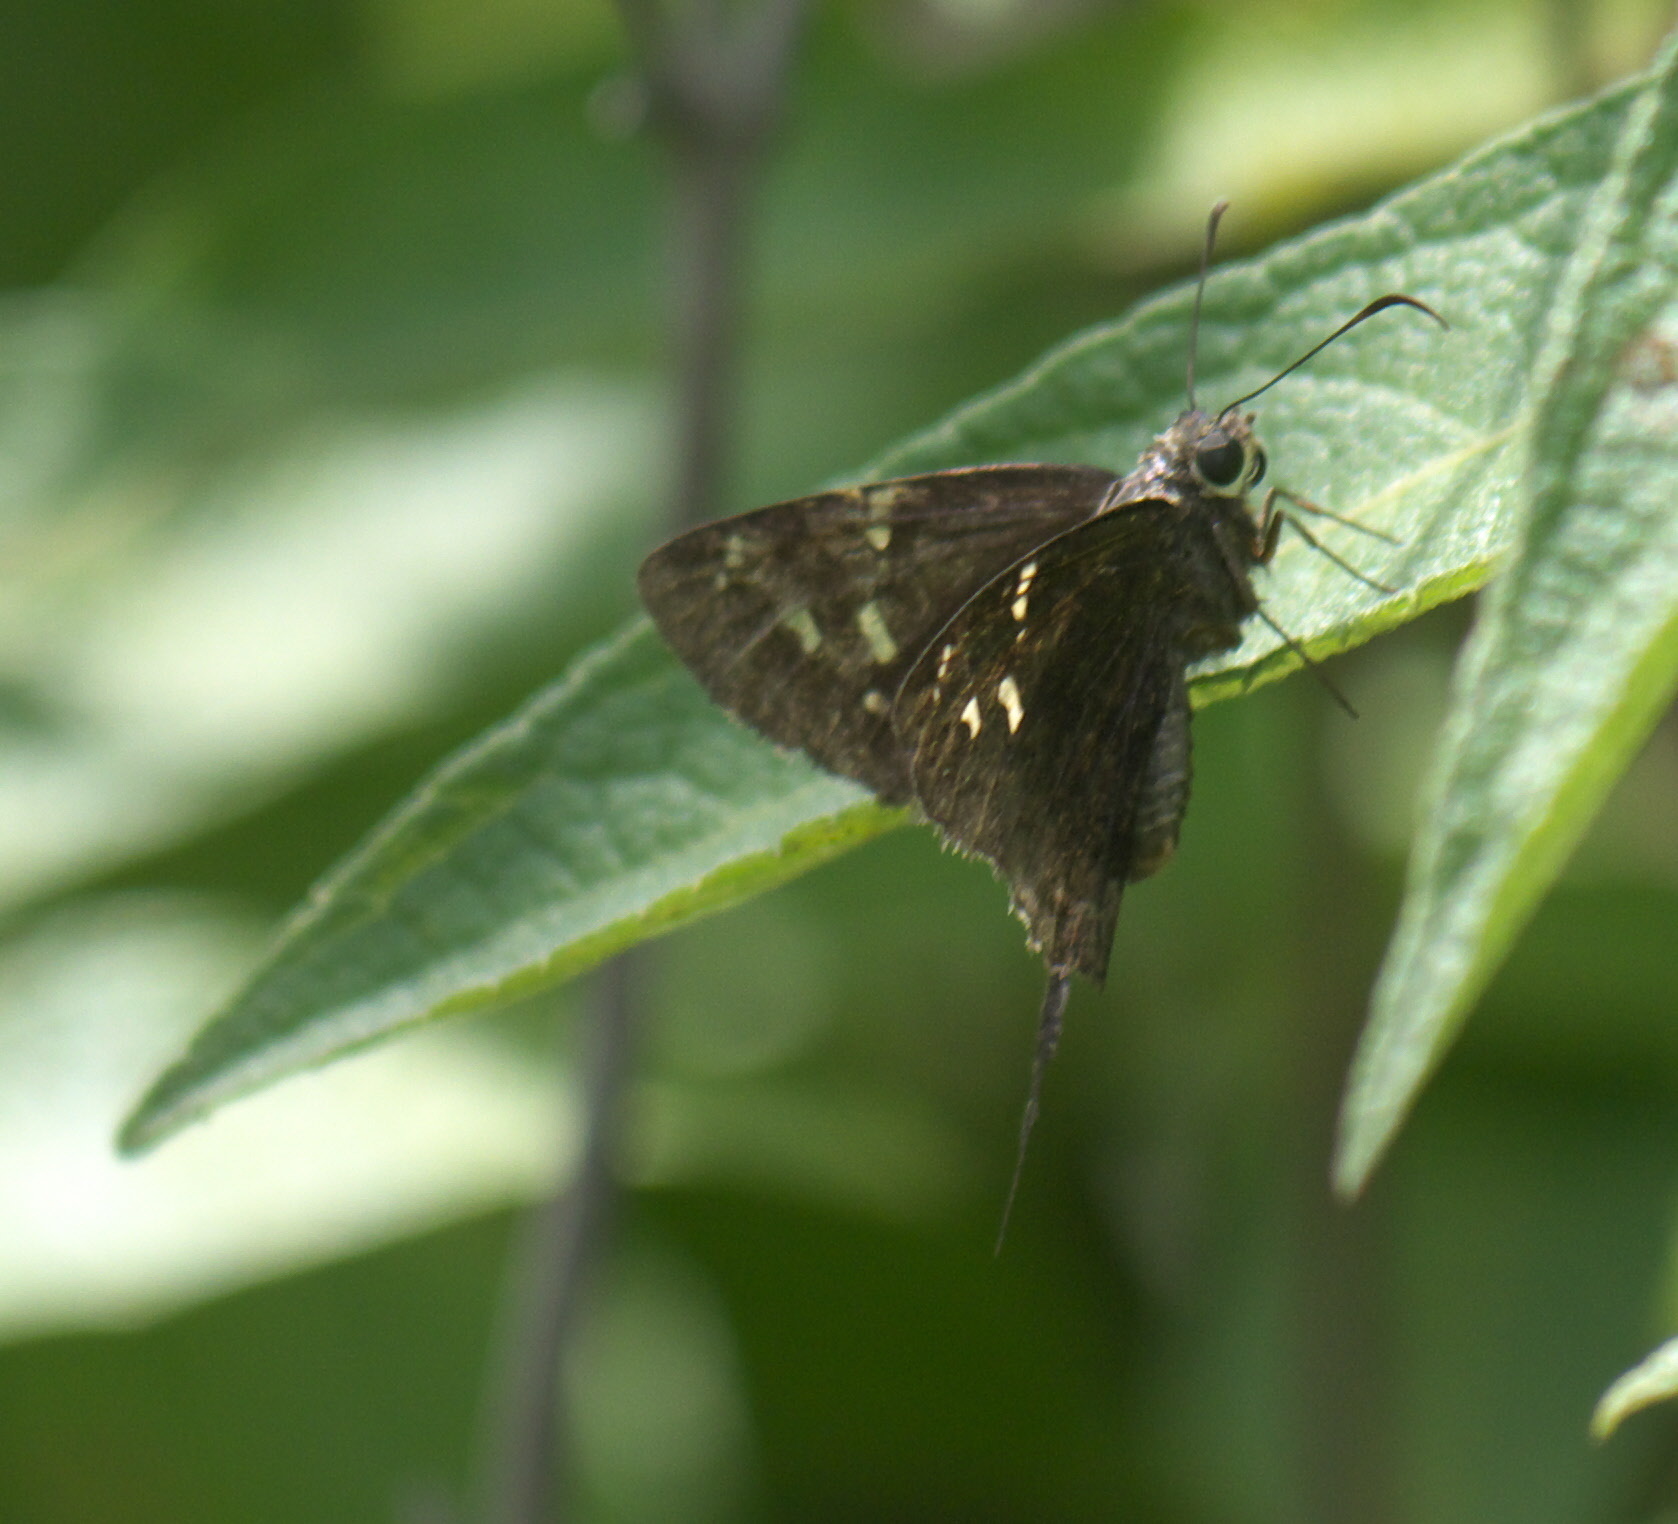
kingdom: Animalia
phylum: Arthropoda
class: Insecta
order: Lepidoptera
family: Hesperiidae
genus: Thorybes
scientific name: Thorybes
